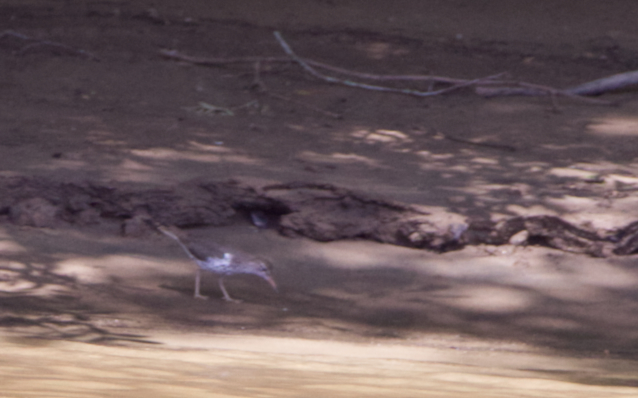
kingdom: Animalia
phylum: Chordata
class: Aves
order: Charadriiformes
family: Scolopacidae
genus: Actitis
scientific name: Actitis macularius
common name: Spotted sandpiper
